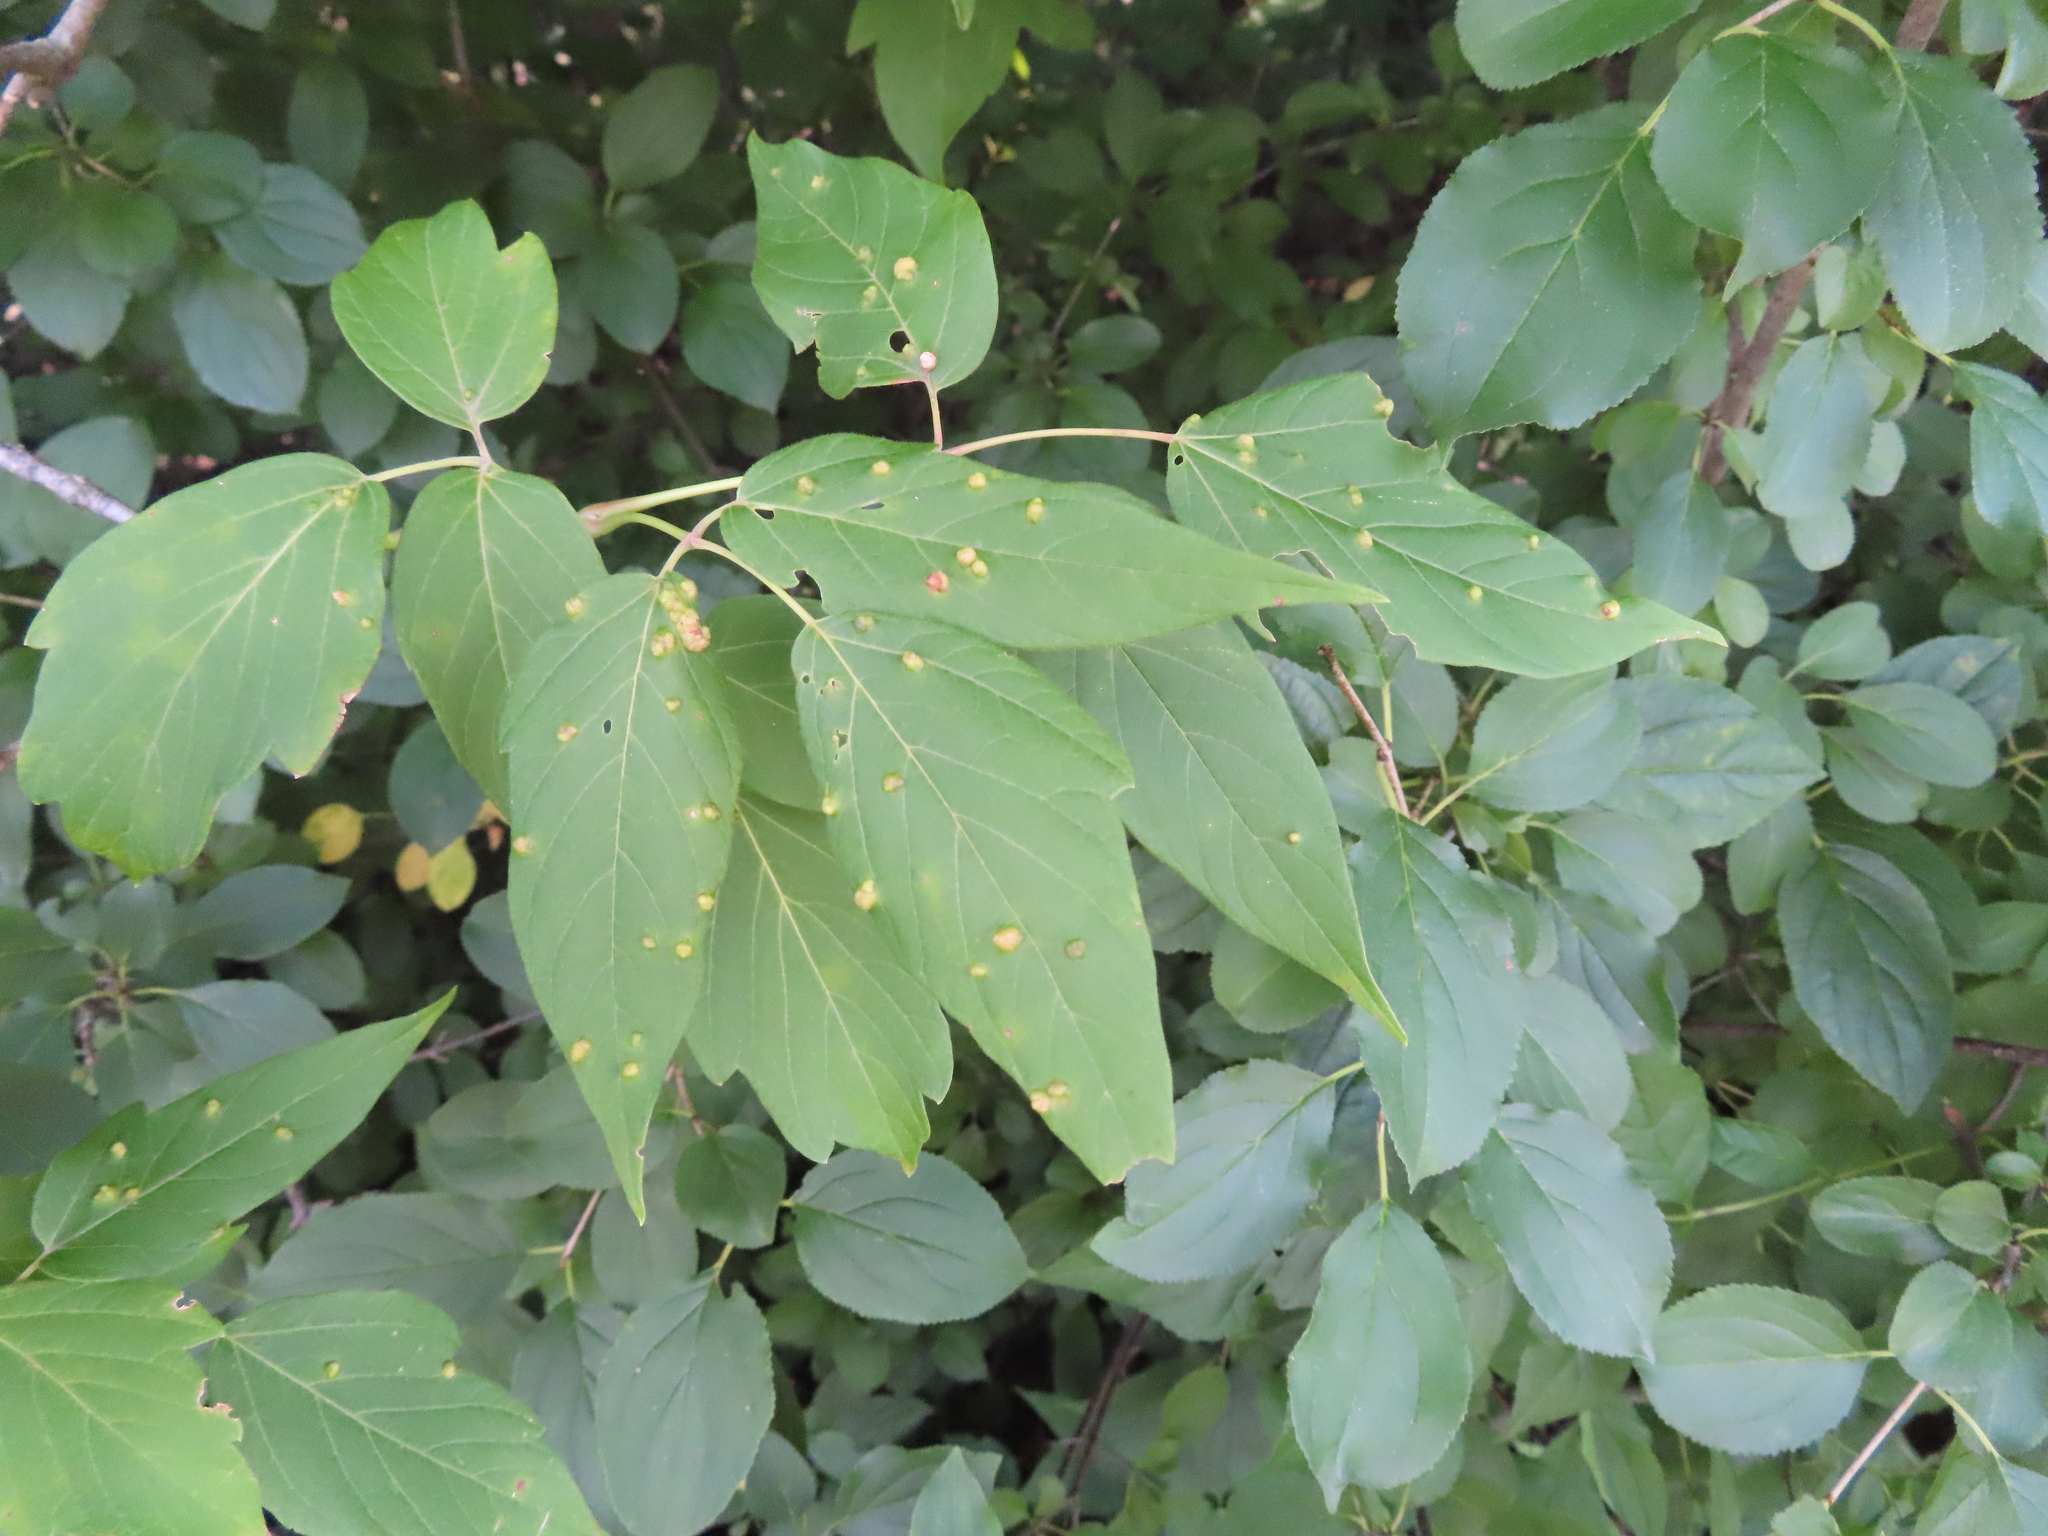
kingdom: Plantae
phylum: Tracheophyta
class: Magnoliopsida
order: Sapindales
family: Sapindaceae
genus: Acer
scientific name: Acer negundo
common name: Ashleaf maple
